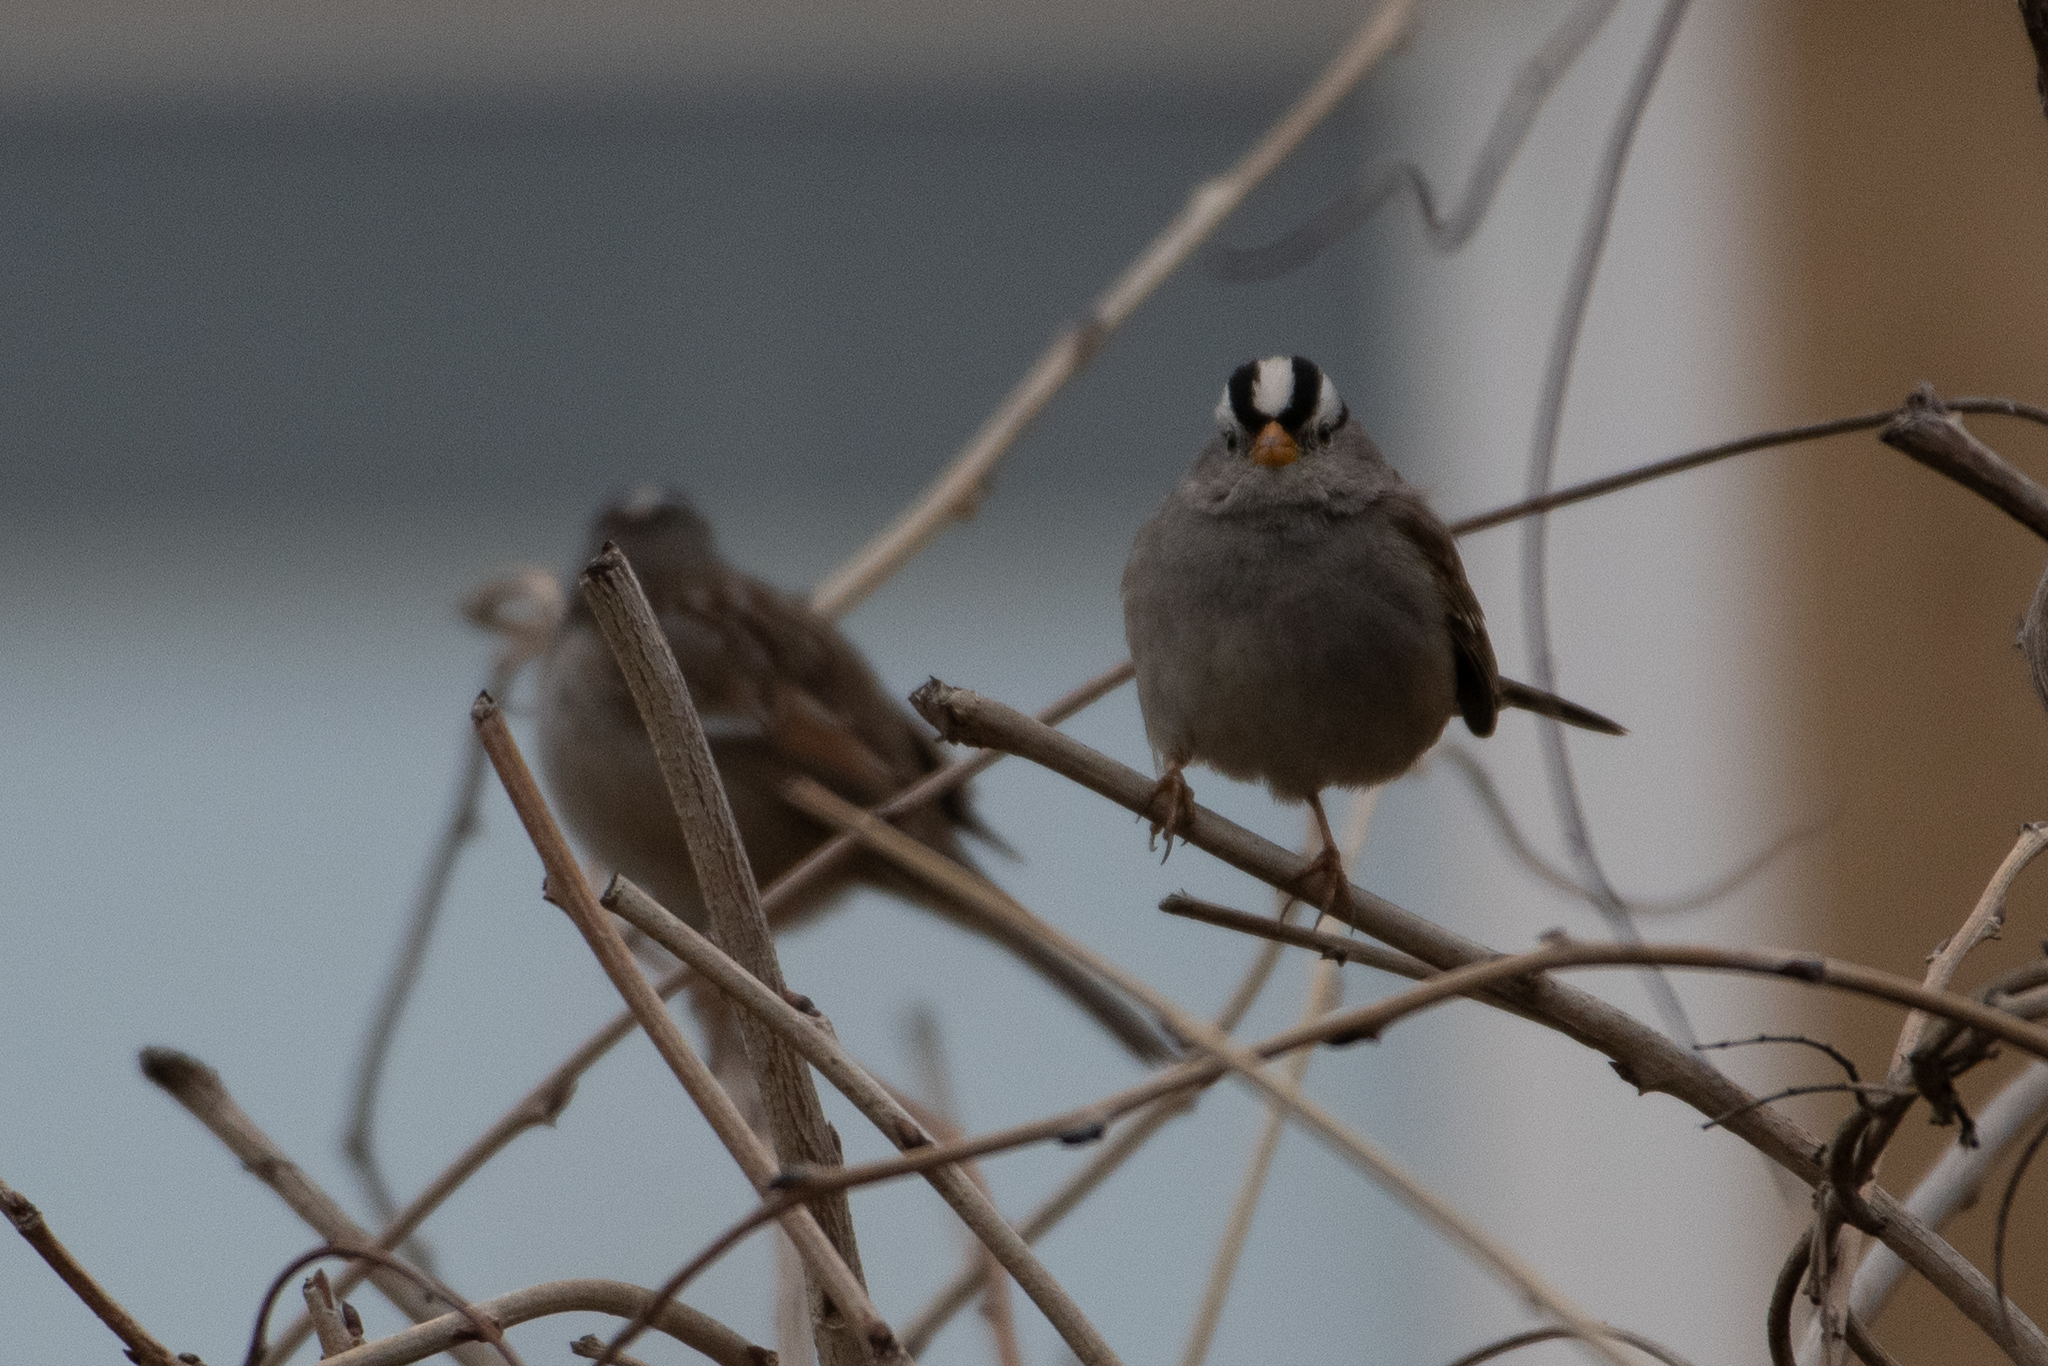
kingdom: Animalia
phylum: Chordata
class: Aves
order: Passeriformes
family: Passerellidae
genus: Zonotrichia
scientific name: Zonotrichia leucophrys
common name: White-crowned sparrow
